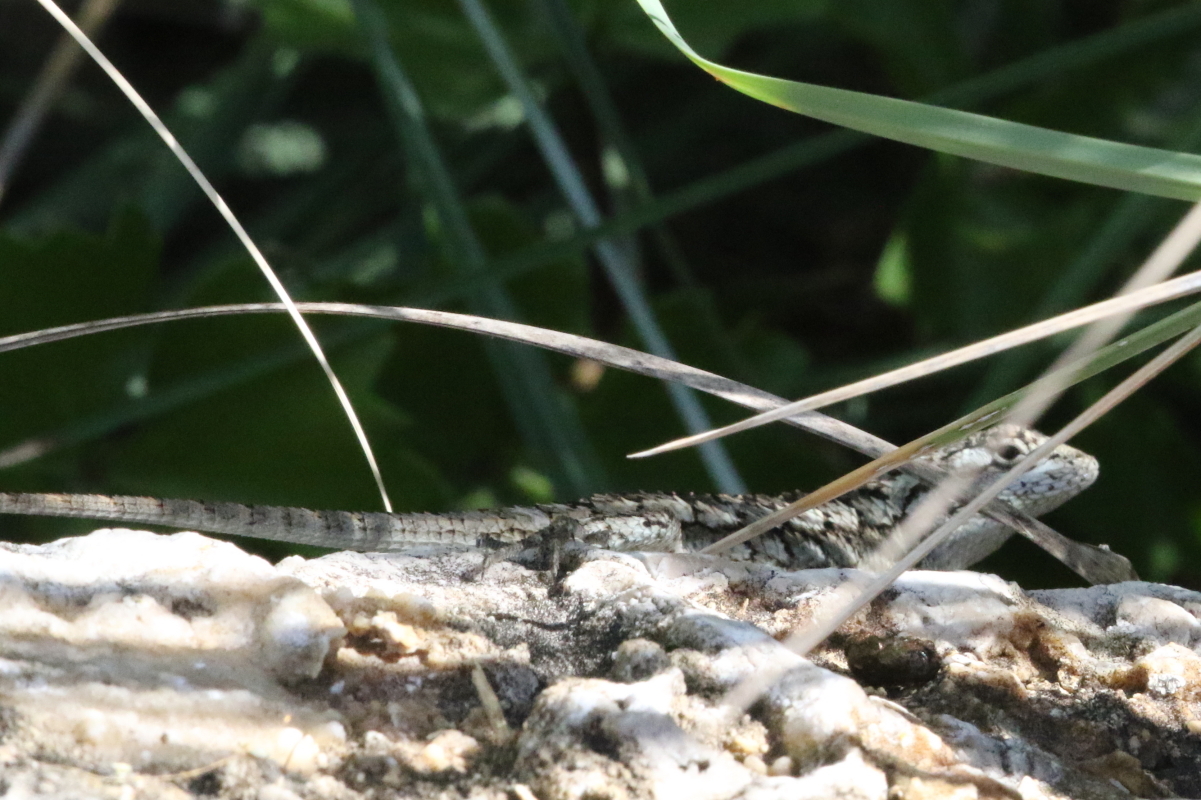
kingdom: Animalia
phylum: Chordata
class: Squamata
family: Phrynosomatidae
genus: Sceloporus
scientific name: Sceloporus olivaceus
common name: Texas spiny lizard
